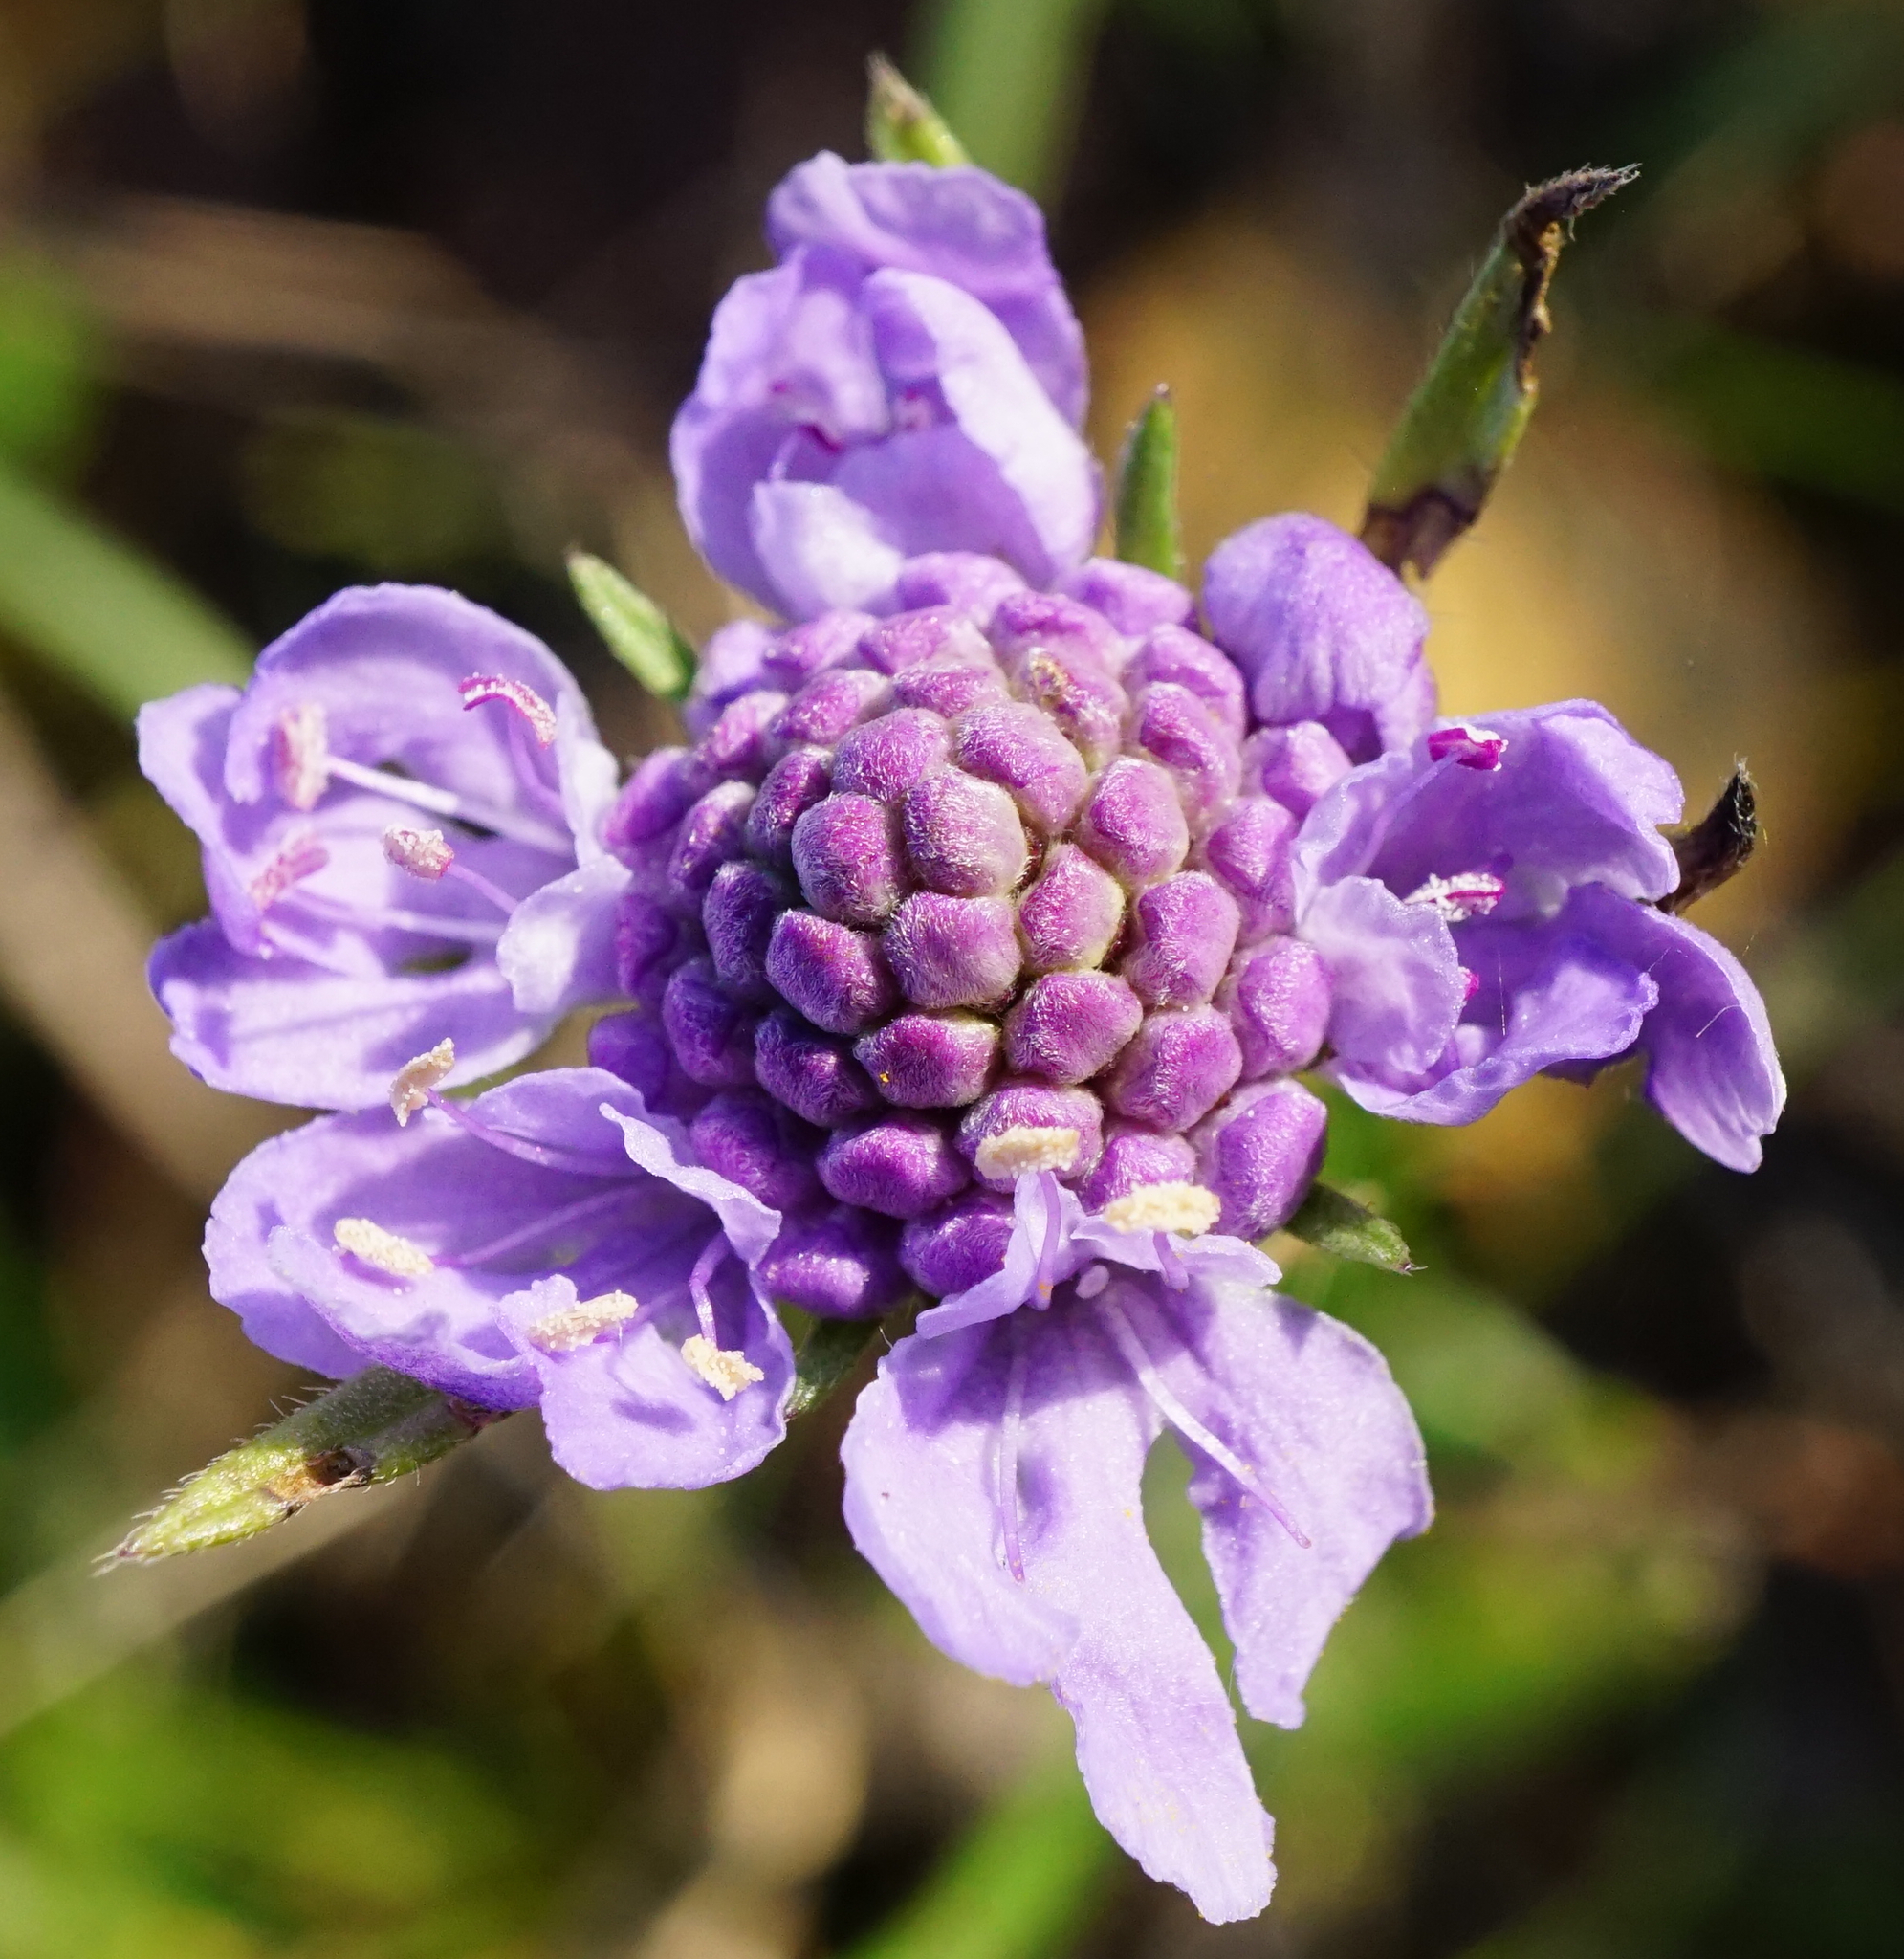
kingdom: Plantae
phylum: Tracheophyta
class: Magnoliopsida
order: Dipsacales
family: Caprifoliaceae
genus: Scabiosa
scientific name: Scabiosa canescens
